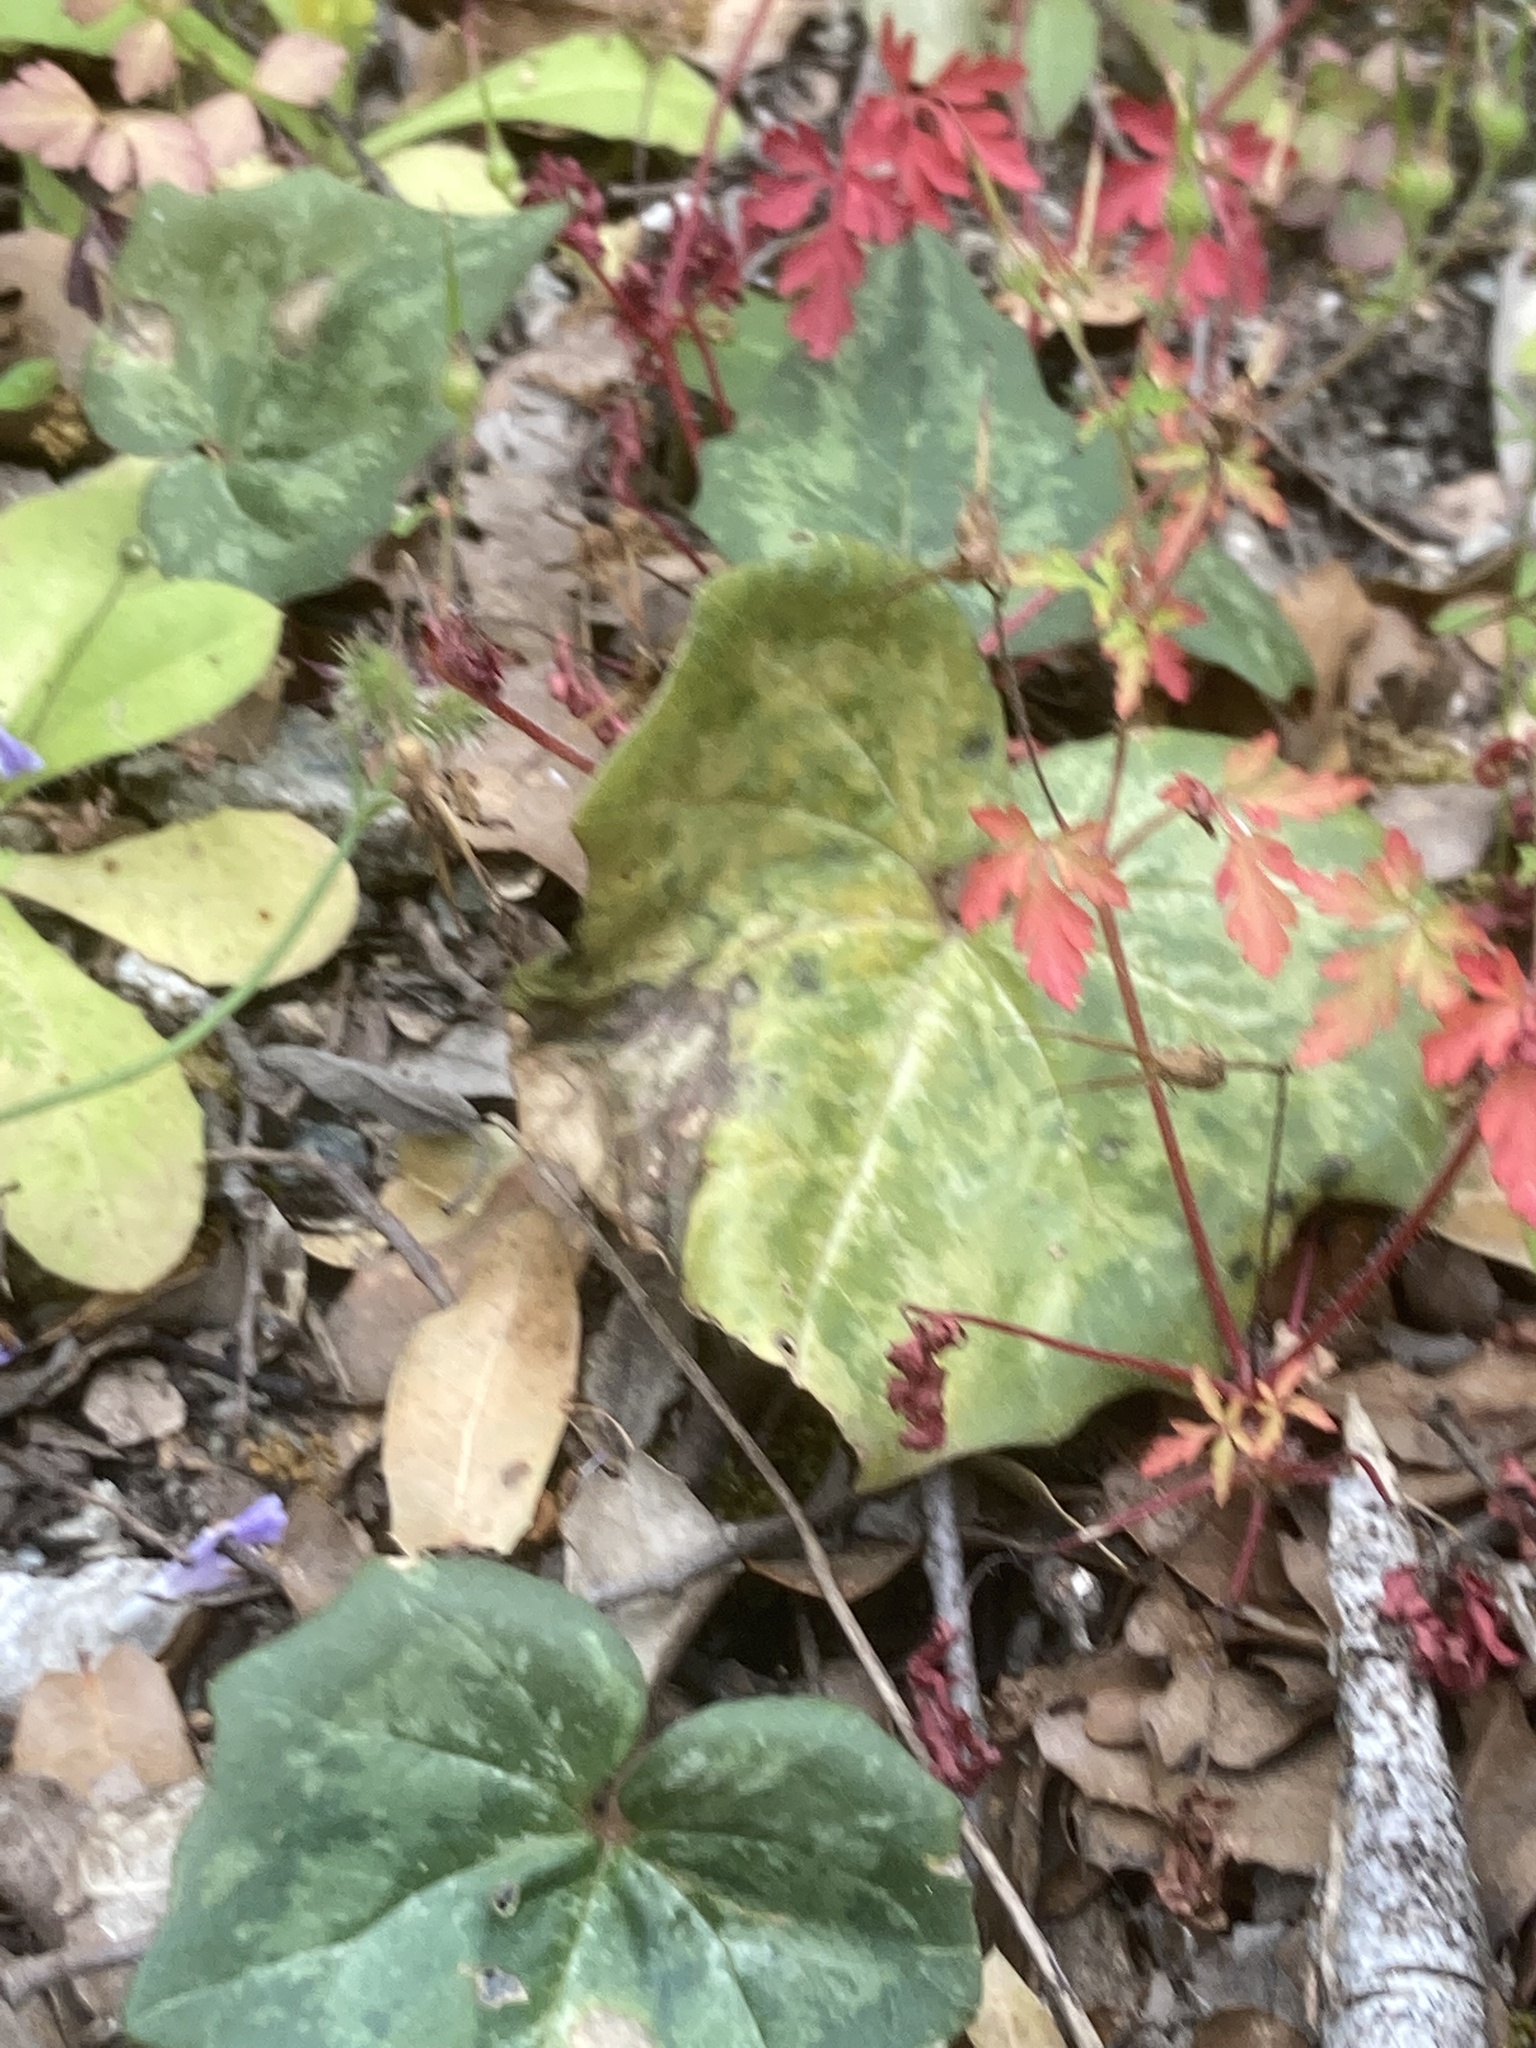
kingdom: Plantae
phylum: Tracheophyta
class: Magnoliopsida
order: Ericales
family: Primulaceae
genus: Cyclamen
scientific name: Cyclamen repandum
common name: Spring sowbread
